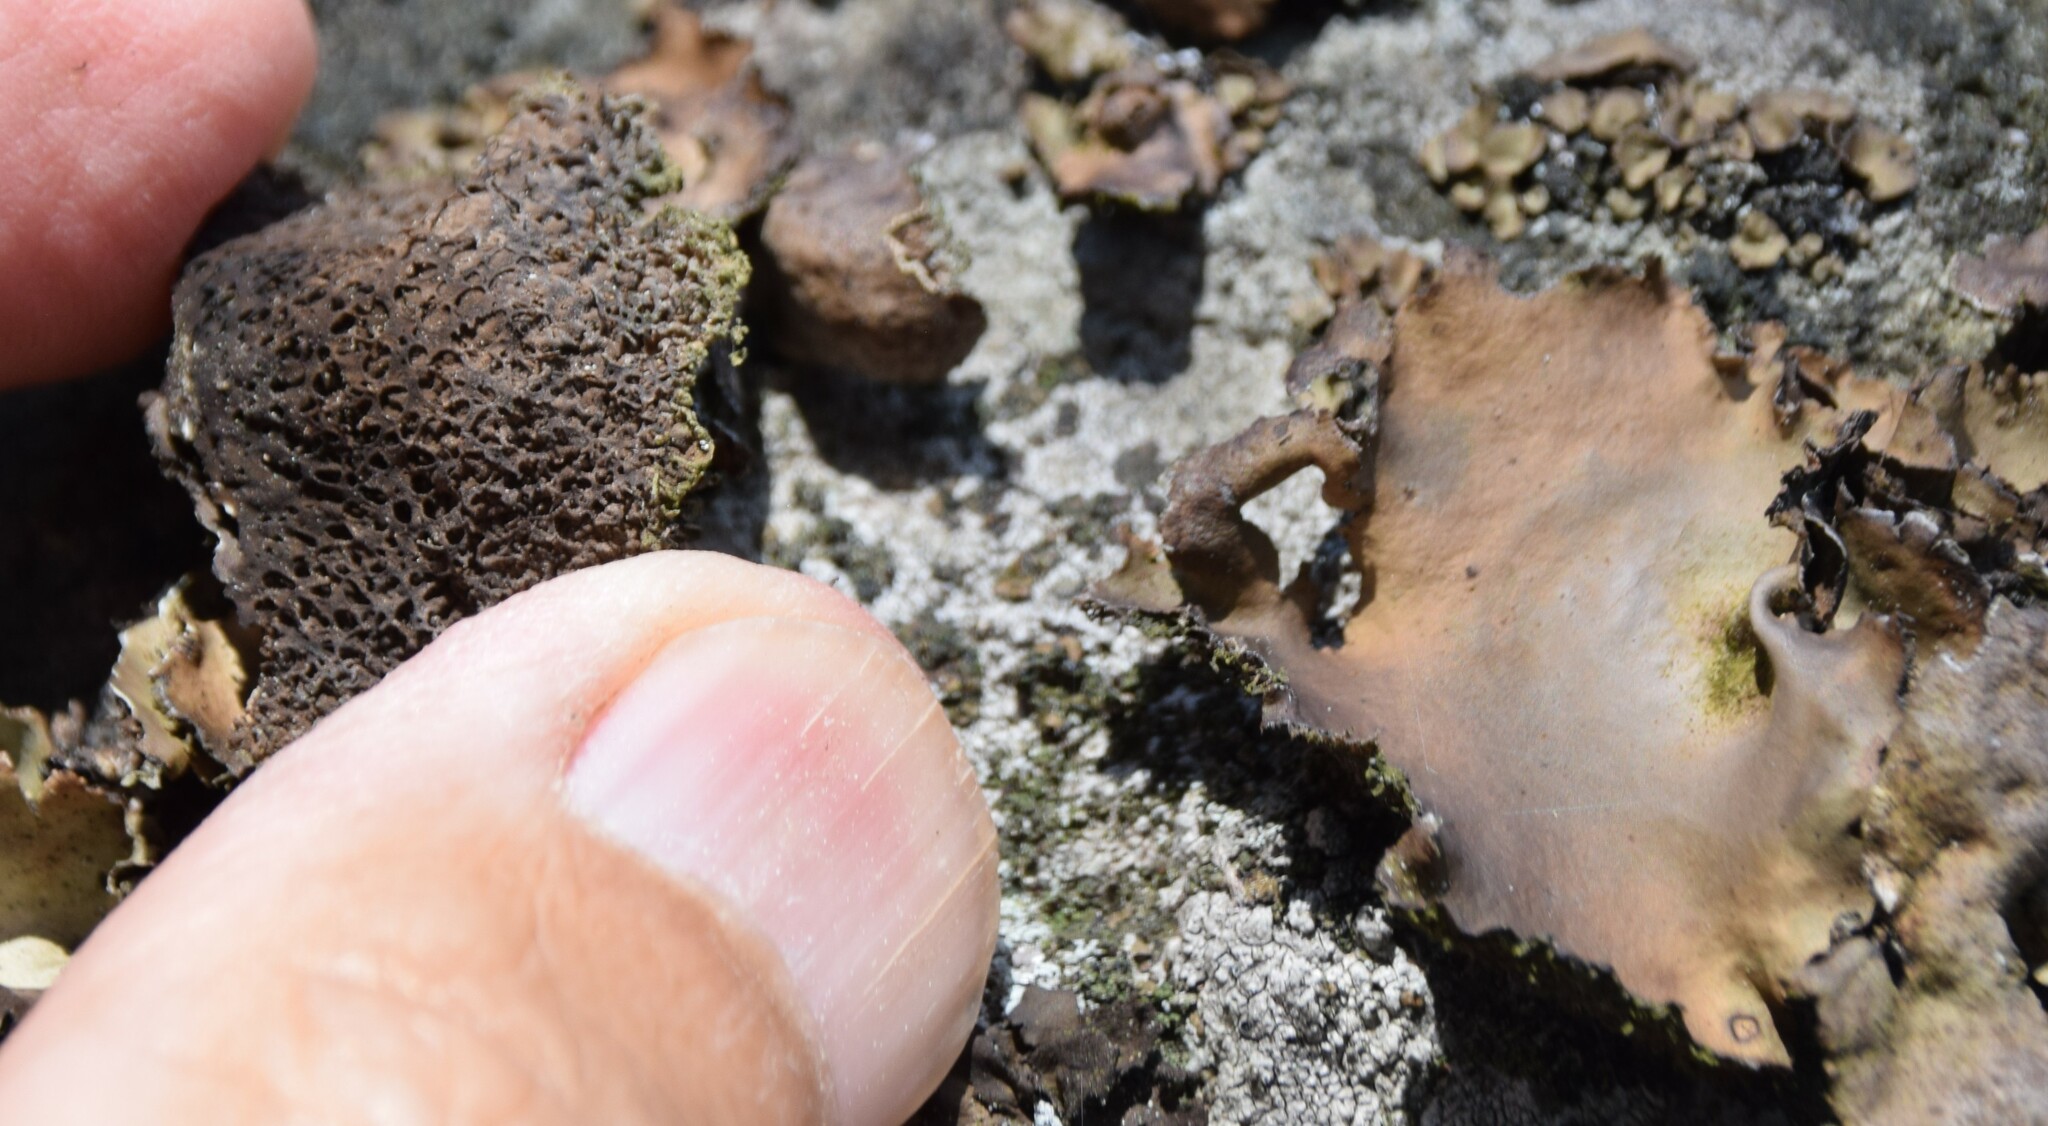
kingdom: Fungi
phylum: Ascomycota
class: Lecanoromycetes
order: Umbilicariales
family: Umbilicariaceae
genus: Umbilicaria
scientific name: Umbilicaria muhlenbergii
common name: Lesser rocktripe
